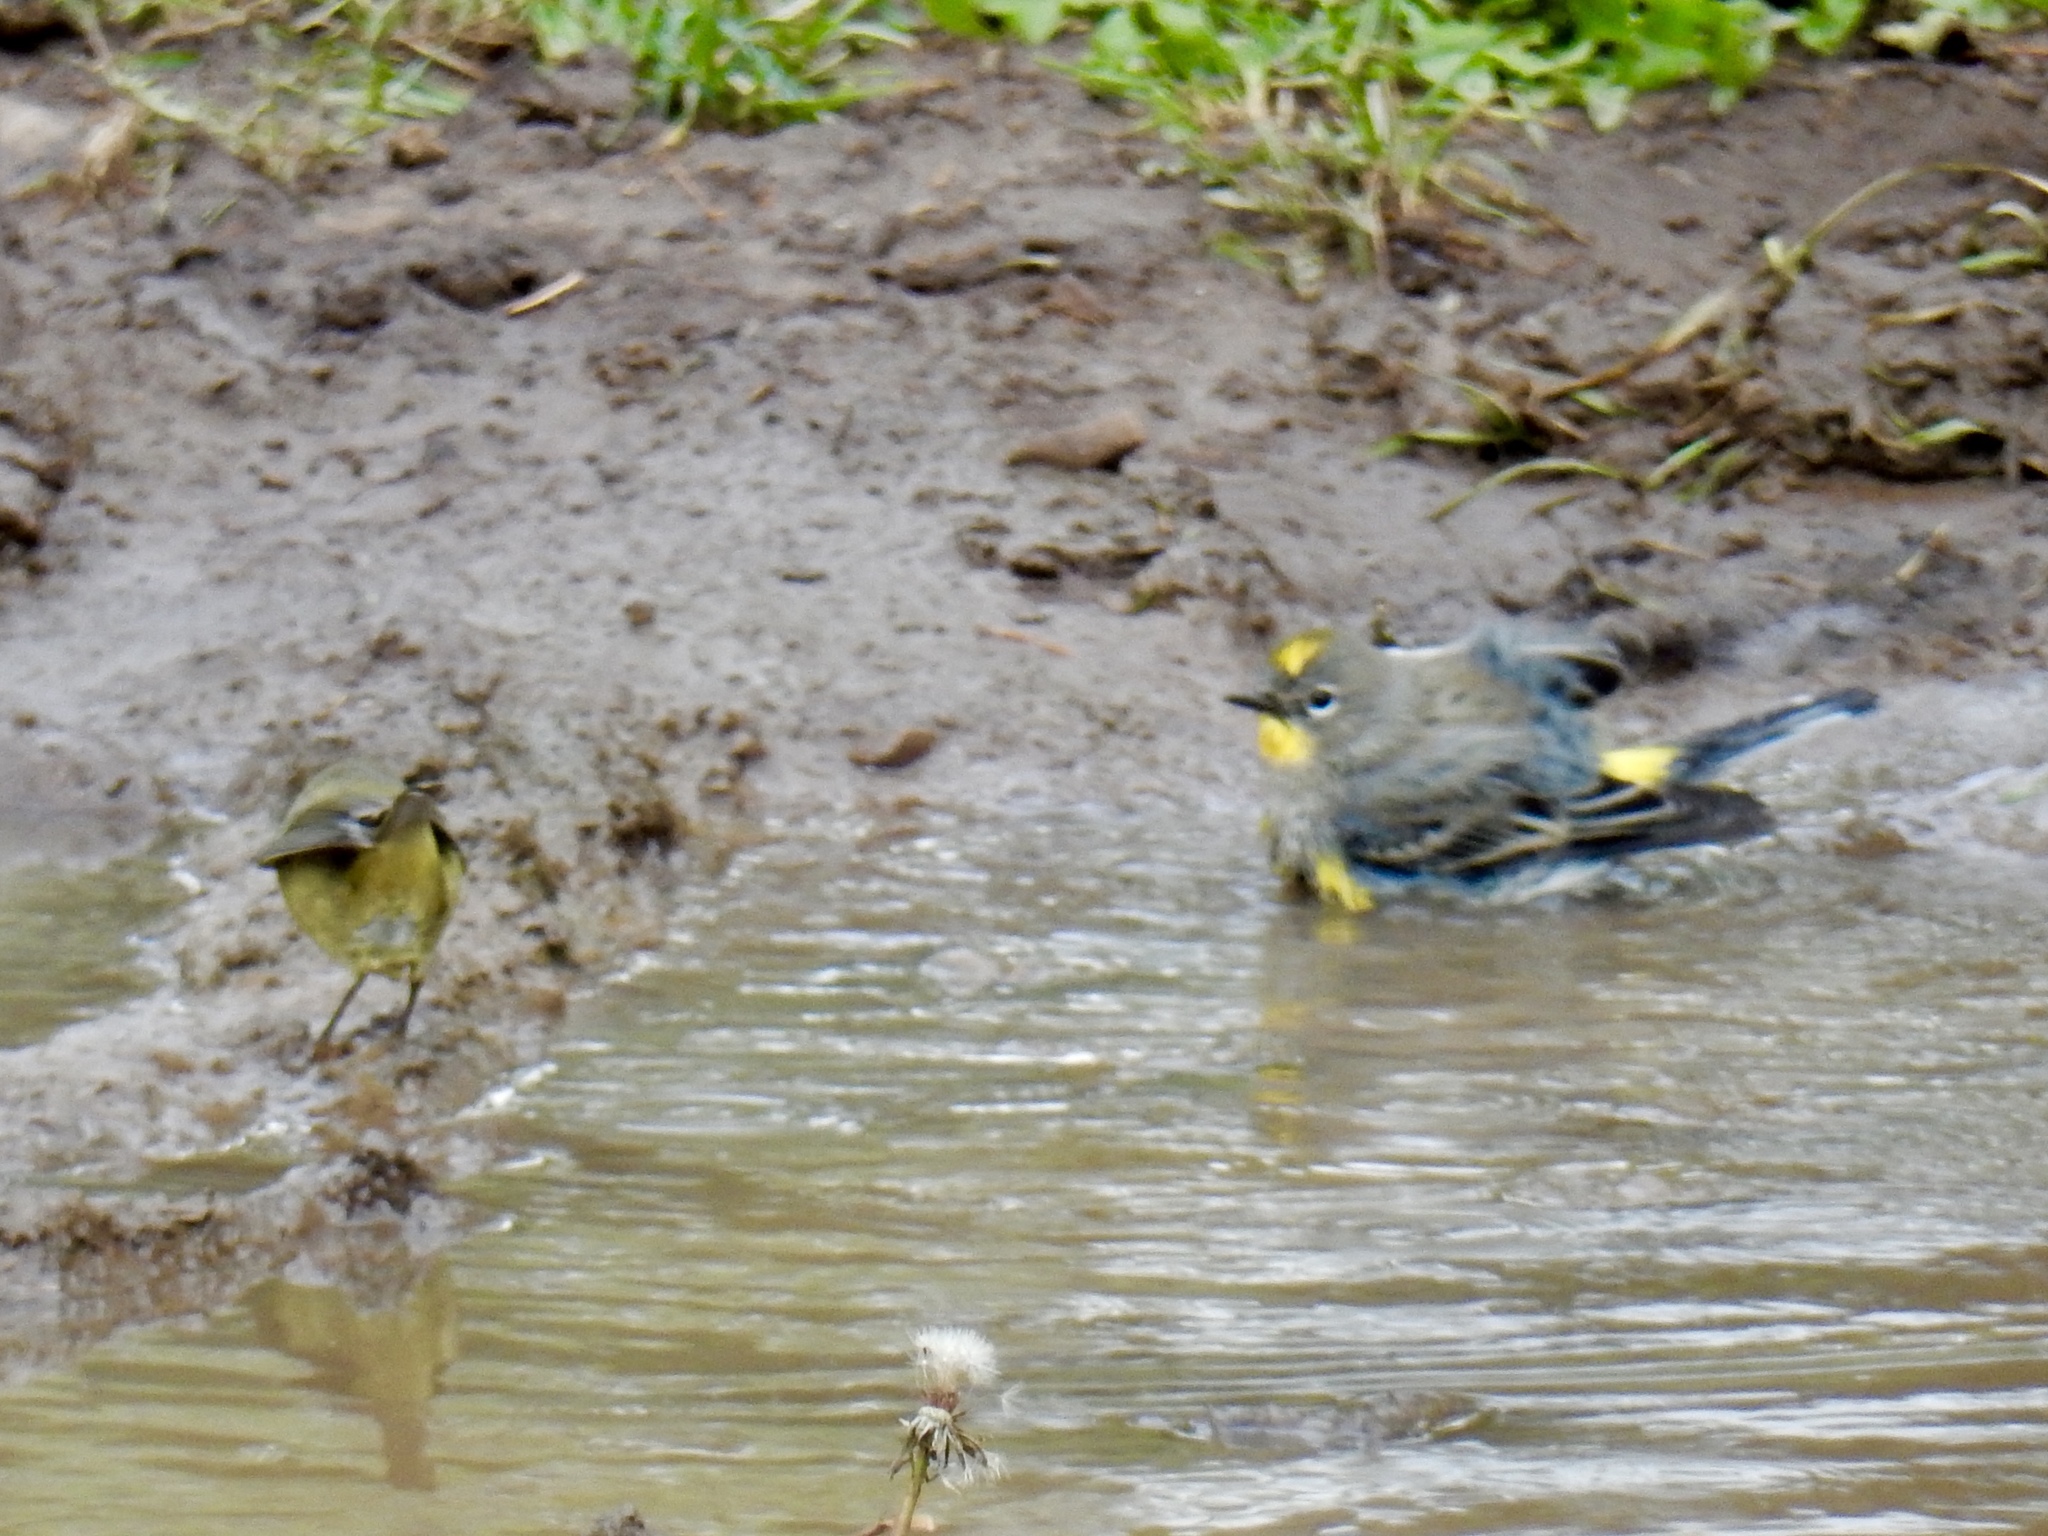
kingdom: Animalia
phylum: Chordata
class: Aves
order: Passeriformes
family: Parulidae
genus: Leiothlypis
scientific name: Leiothlypis celata
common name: Orange-crowned warbler
